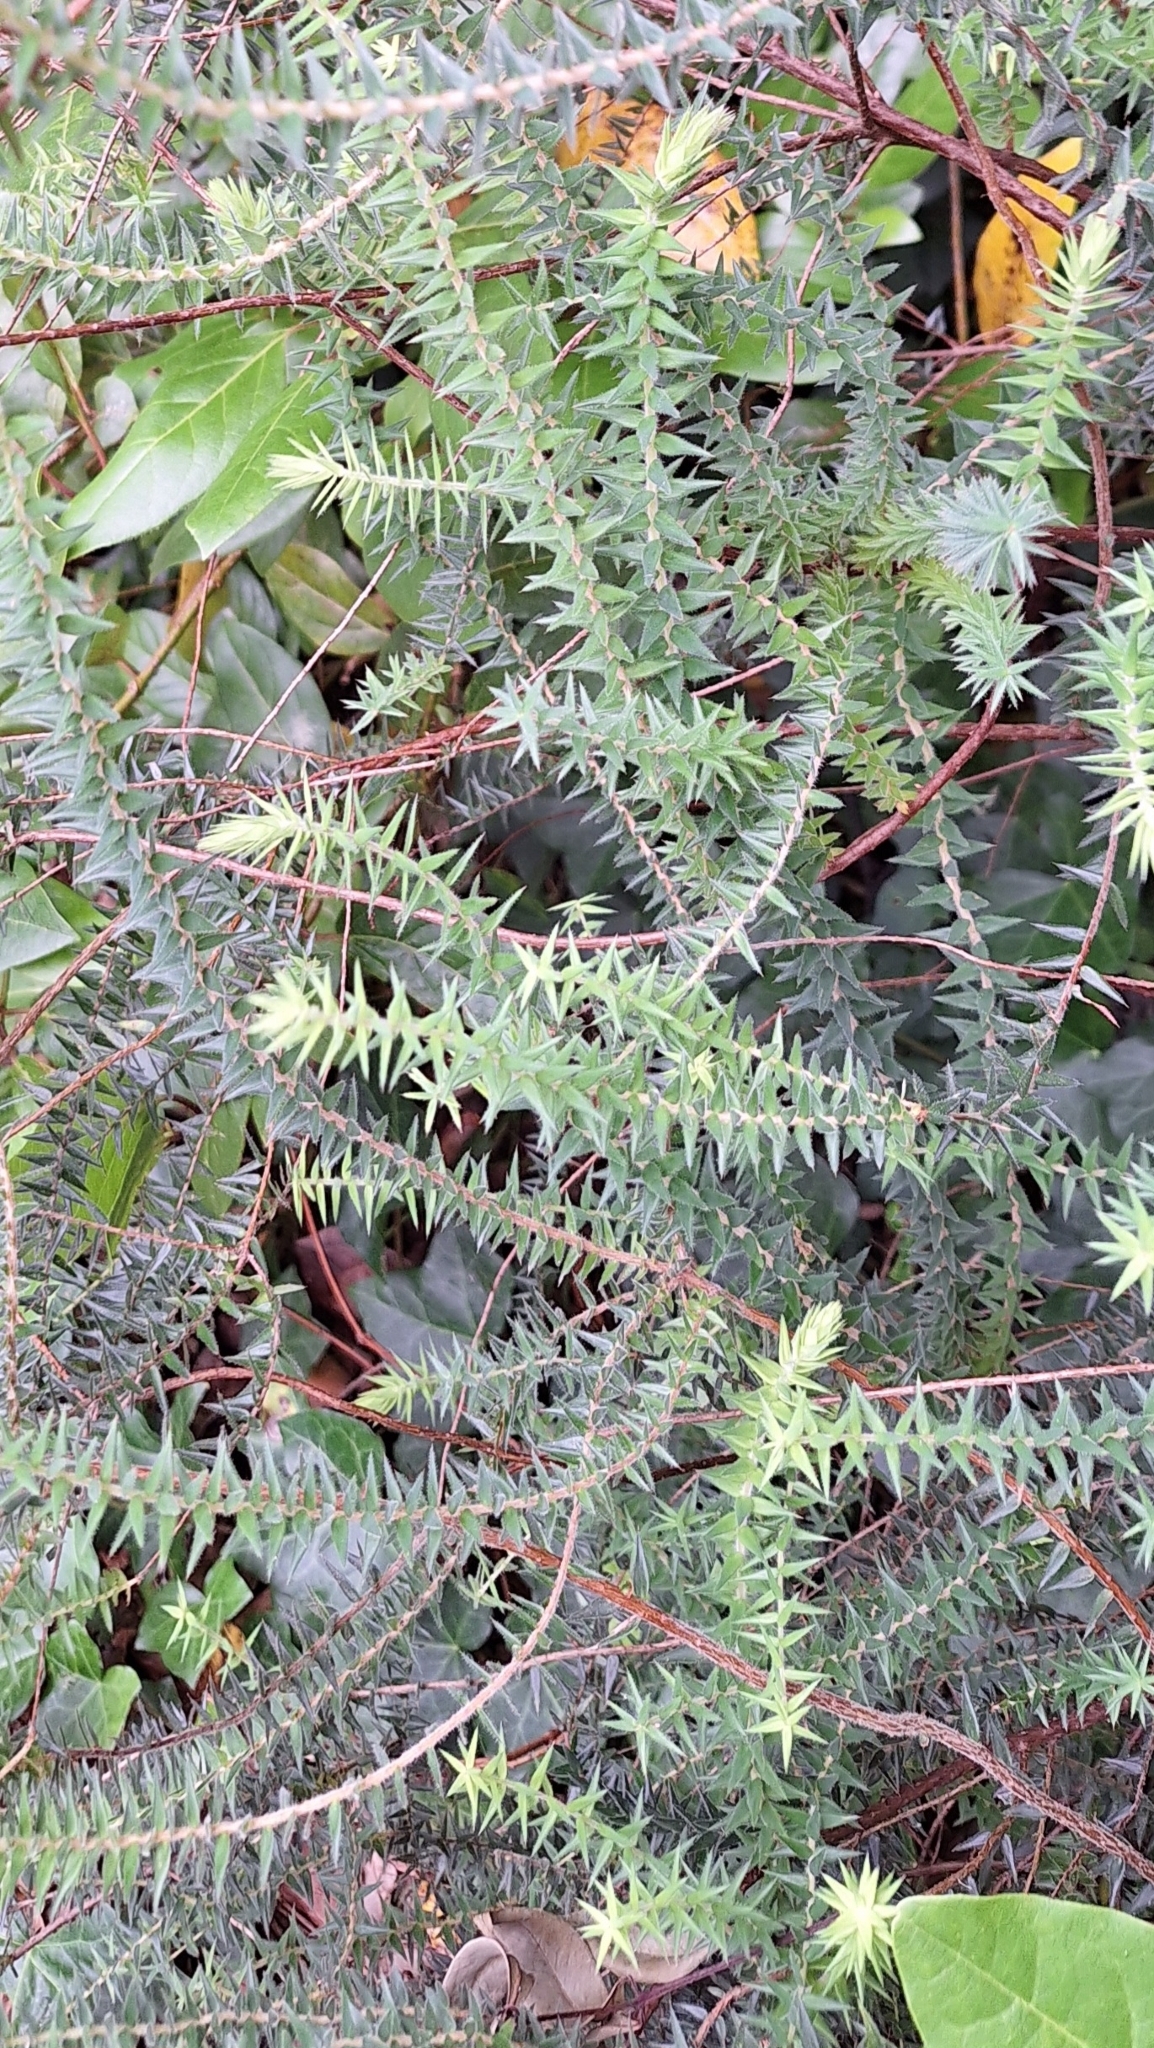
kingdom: Plantae
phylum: Tracheophyta
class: Magnoliopsida
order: Ericales
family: Ericaceae
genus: Acrotriche
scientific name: Acrotriche fasciculiflora
